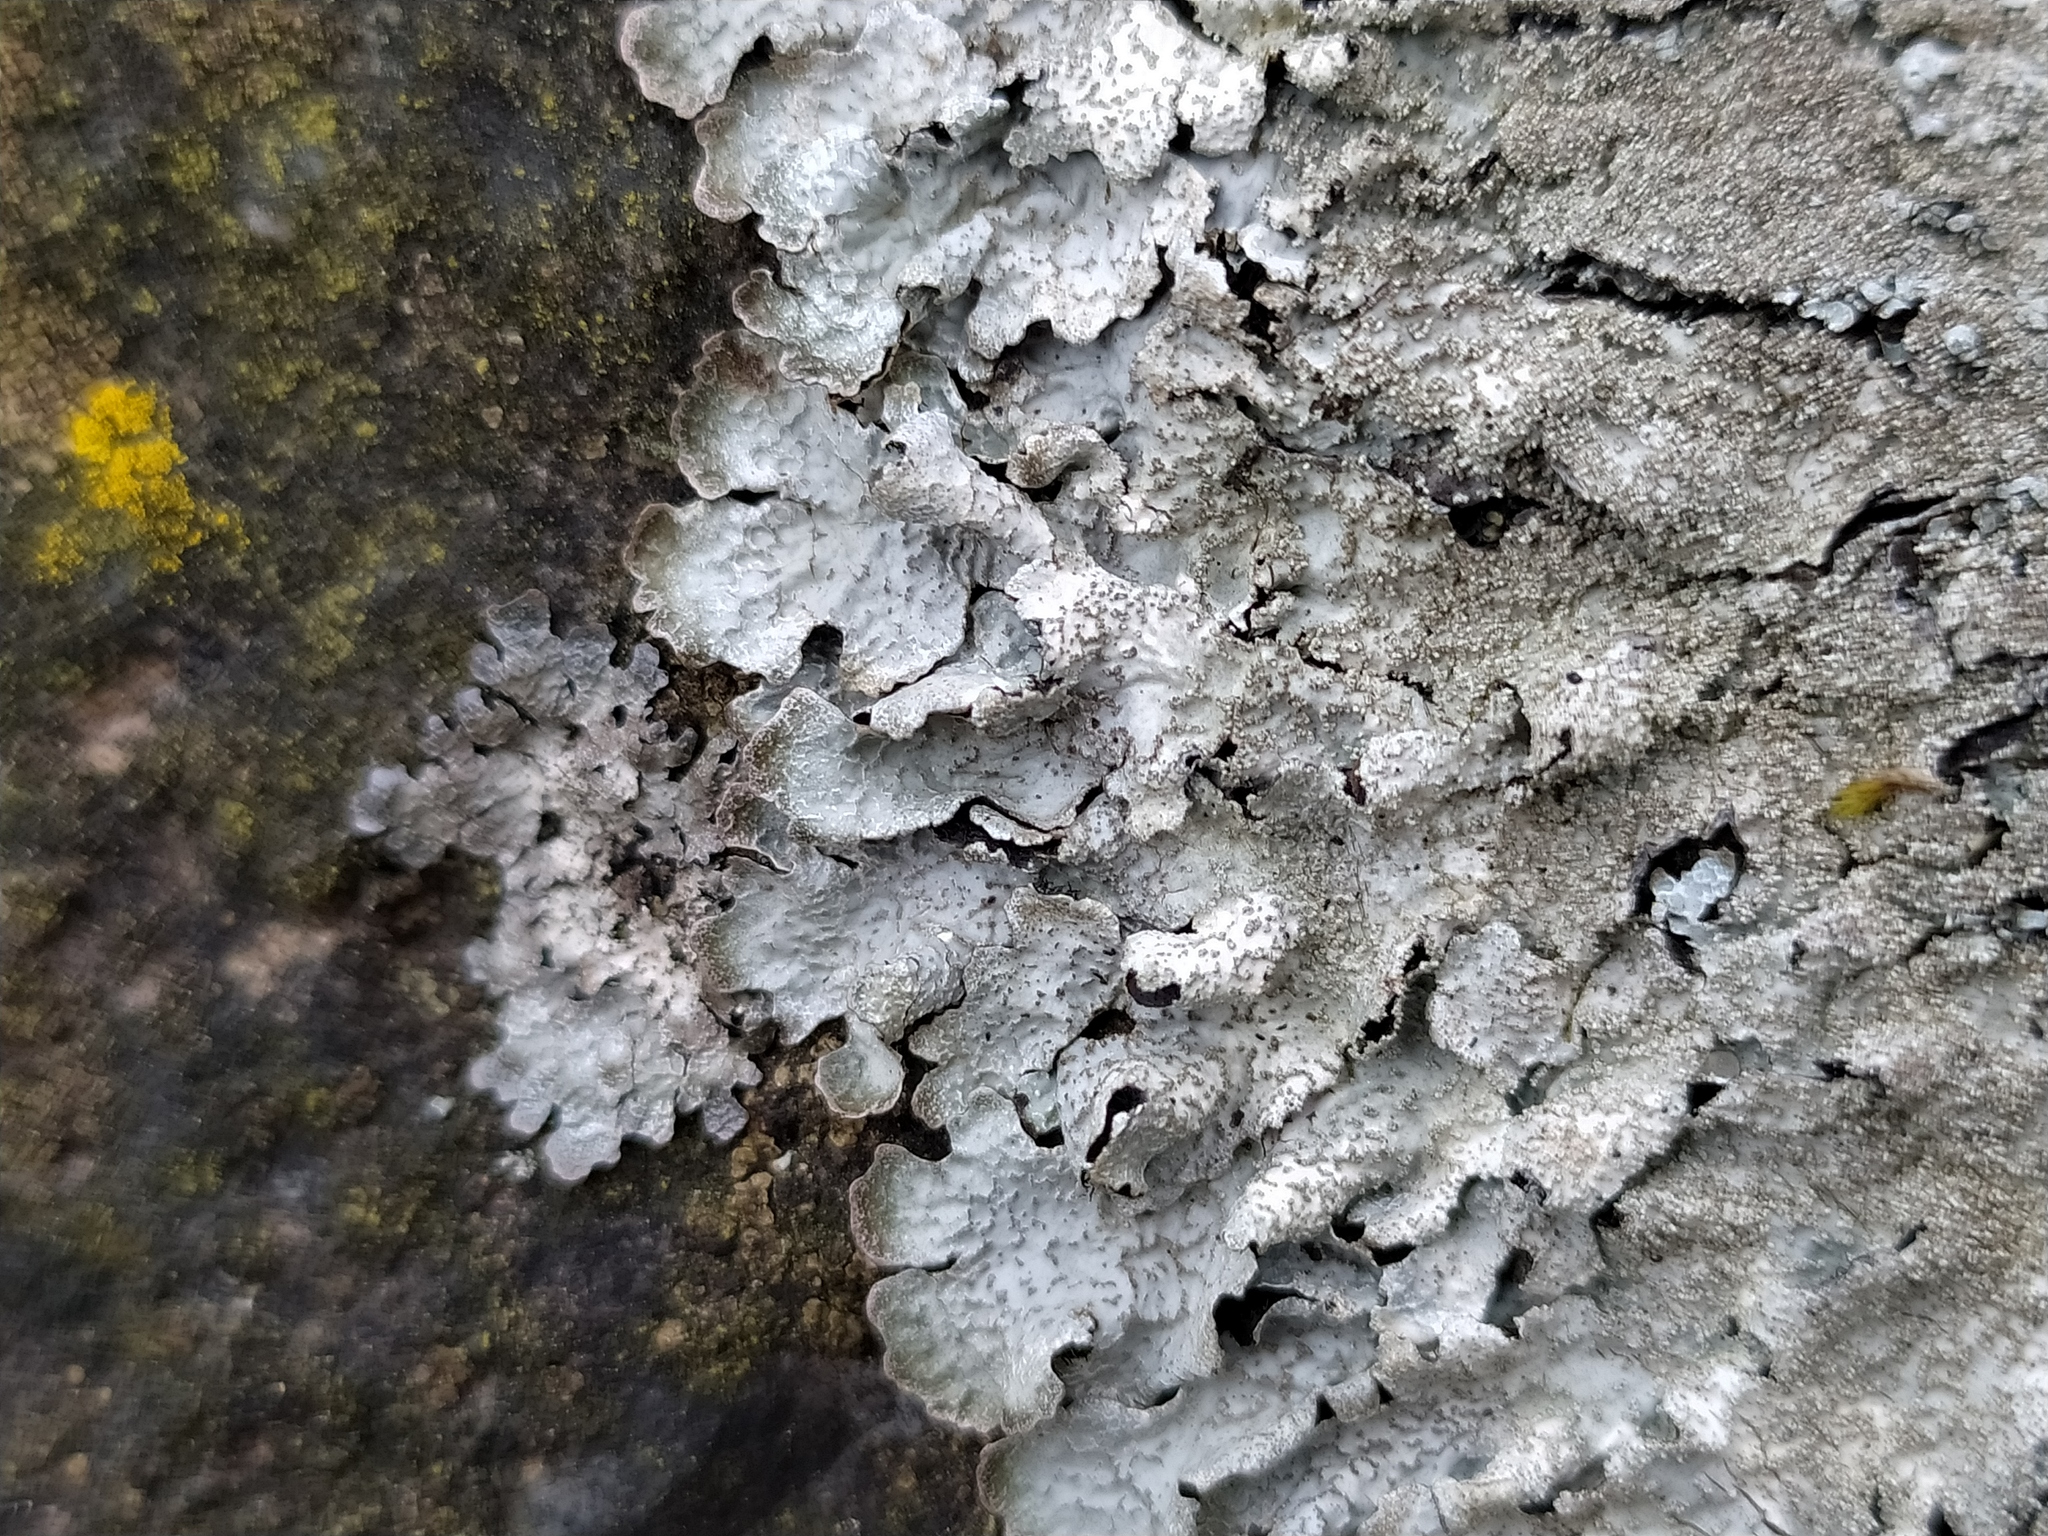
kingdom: Fungi
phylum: Ascomycota
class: Lecanoromycetes
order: Lecanorales
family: Parmeliaceae
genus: Parmelia
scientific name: Parmelia saxatilis
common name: Salted shield lichen
